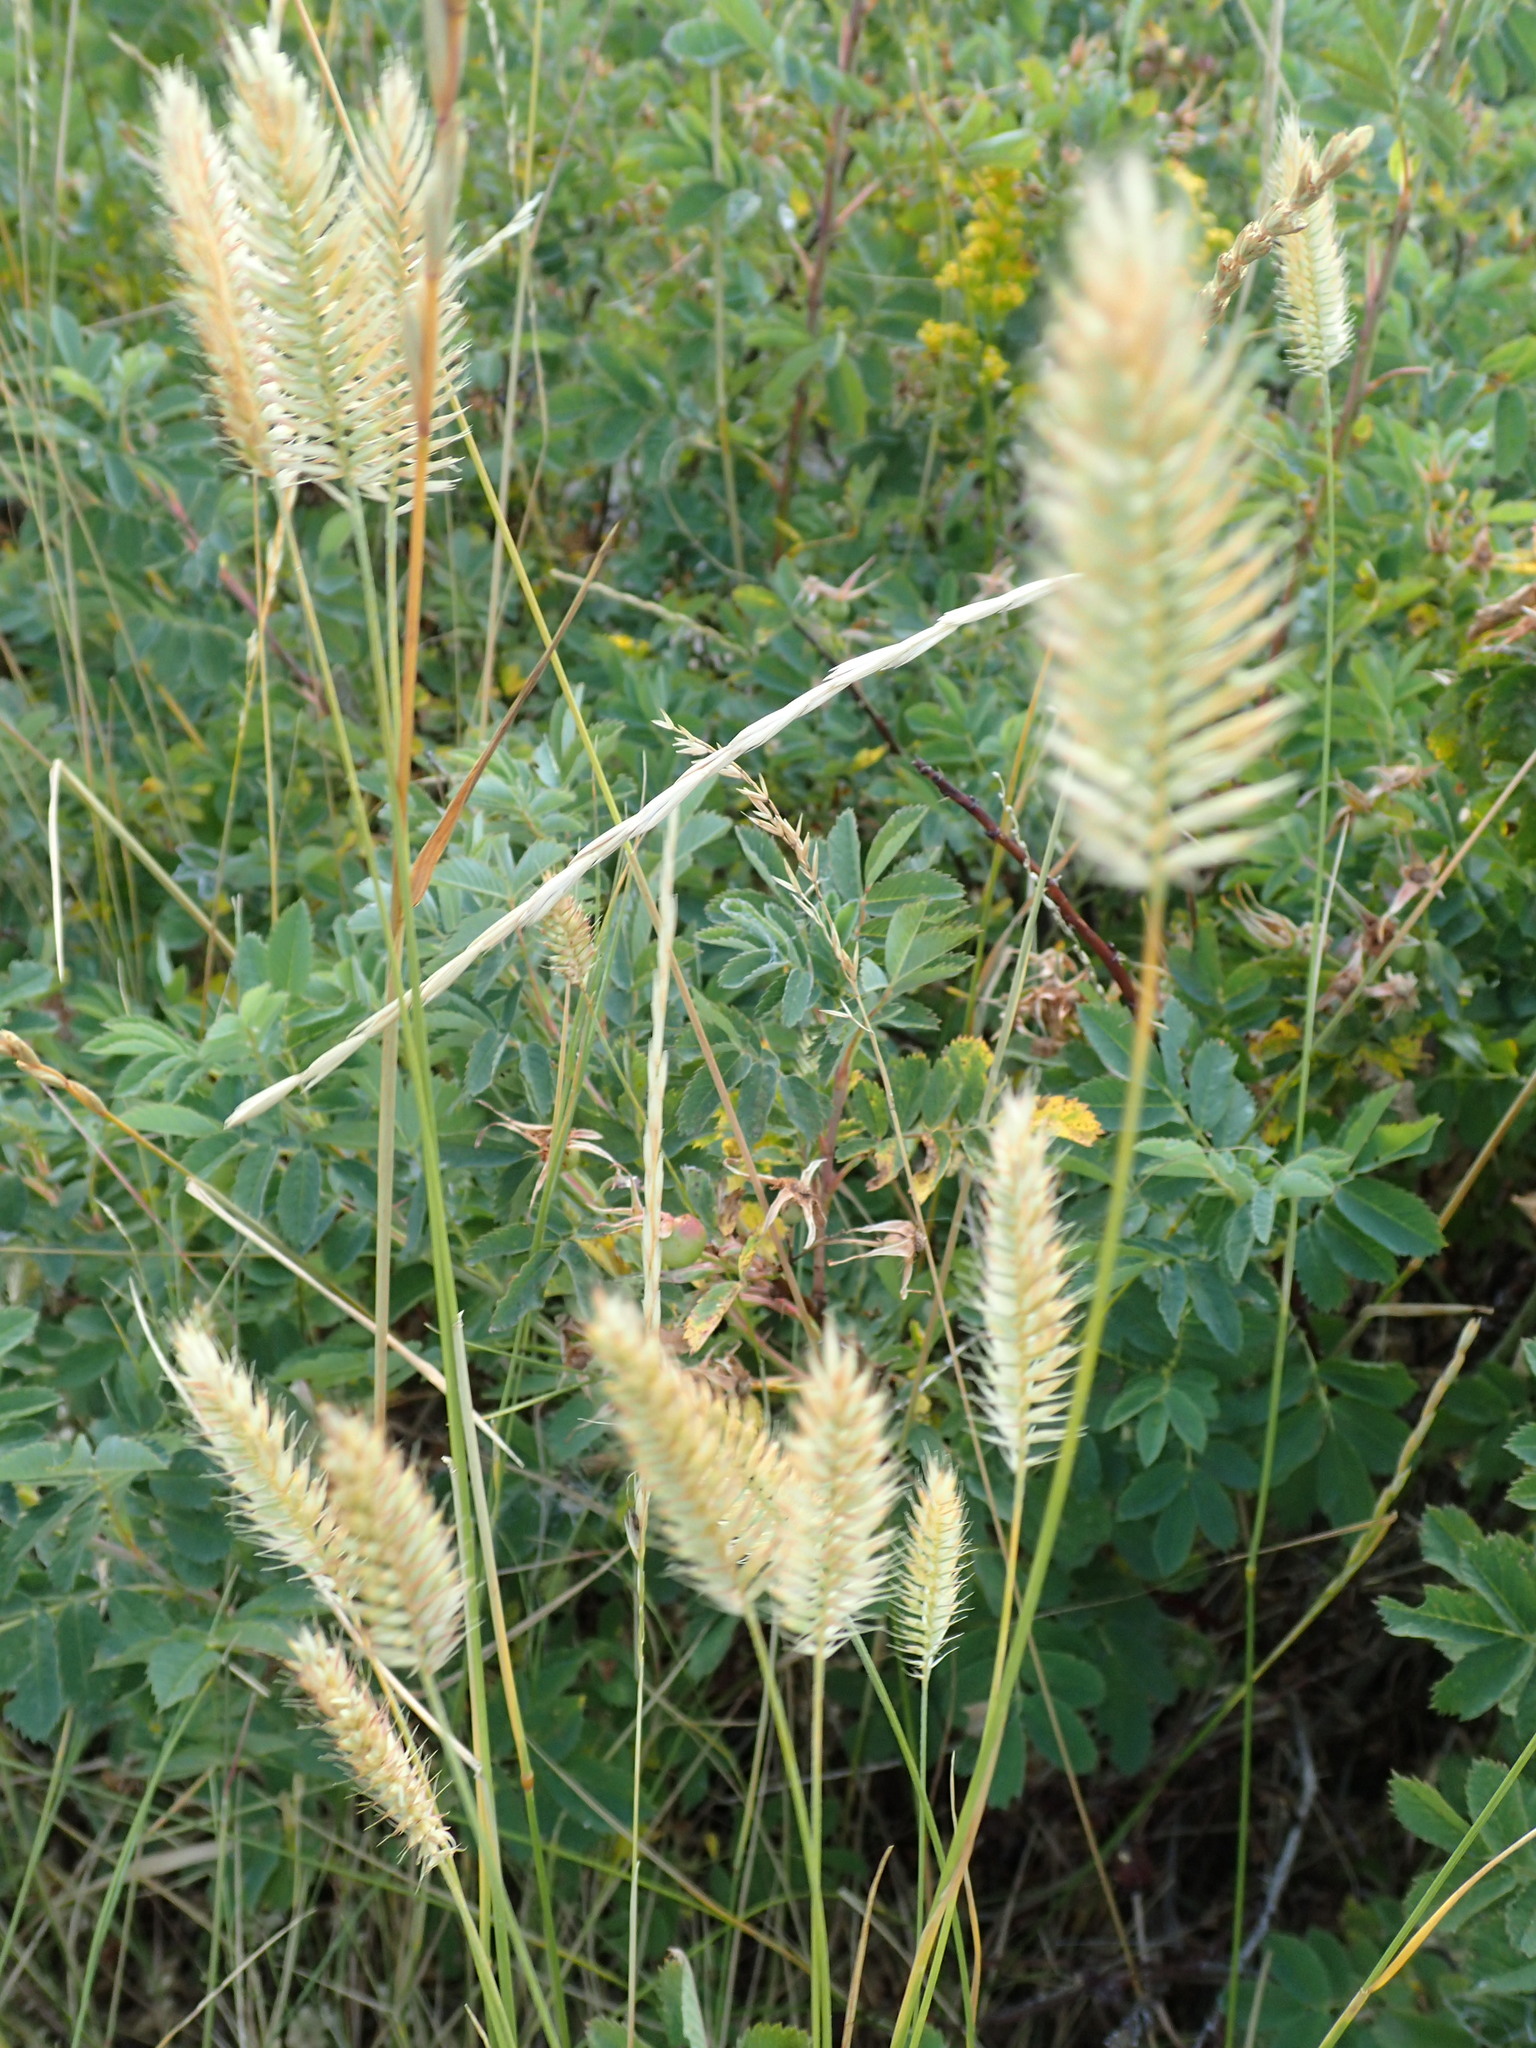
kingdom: Plantae
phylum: Tracheophyta
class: Liliopsida
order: Poales
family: Poaceae
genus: Agropyron
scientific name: Agropyron cristatum
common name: Crested wheatgrass
